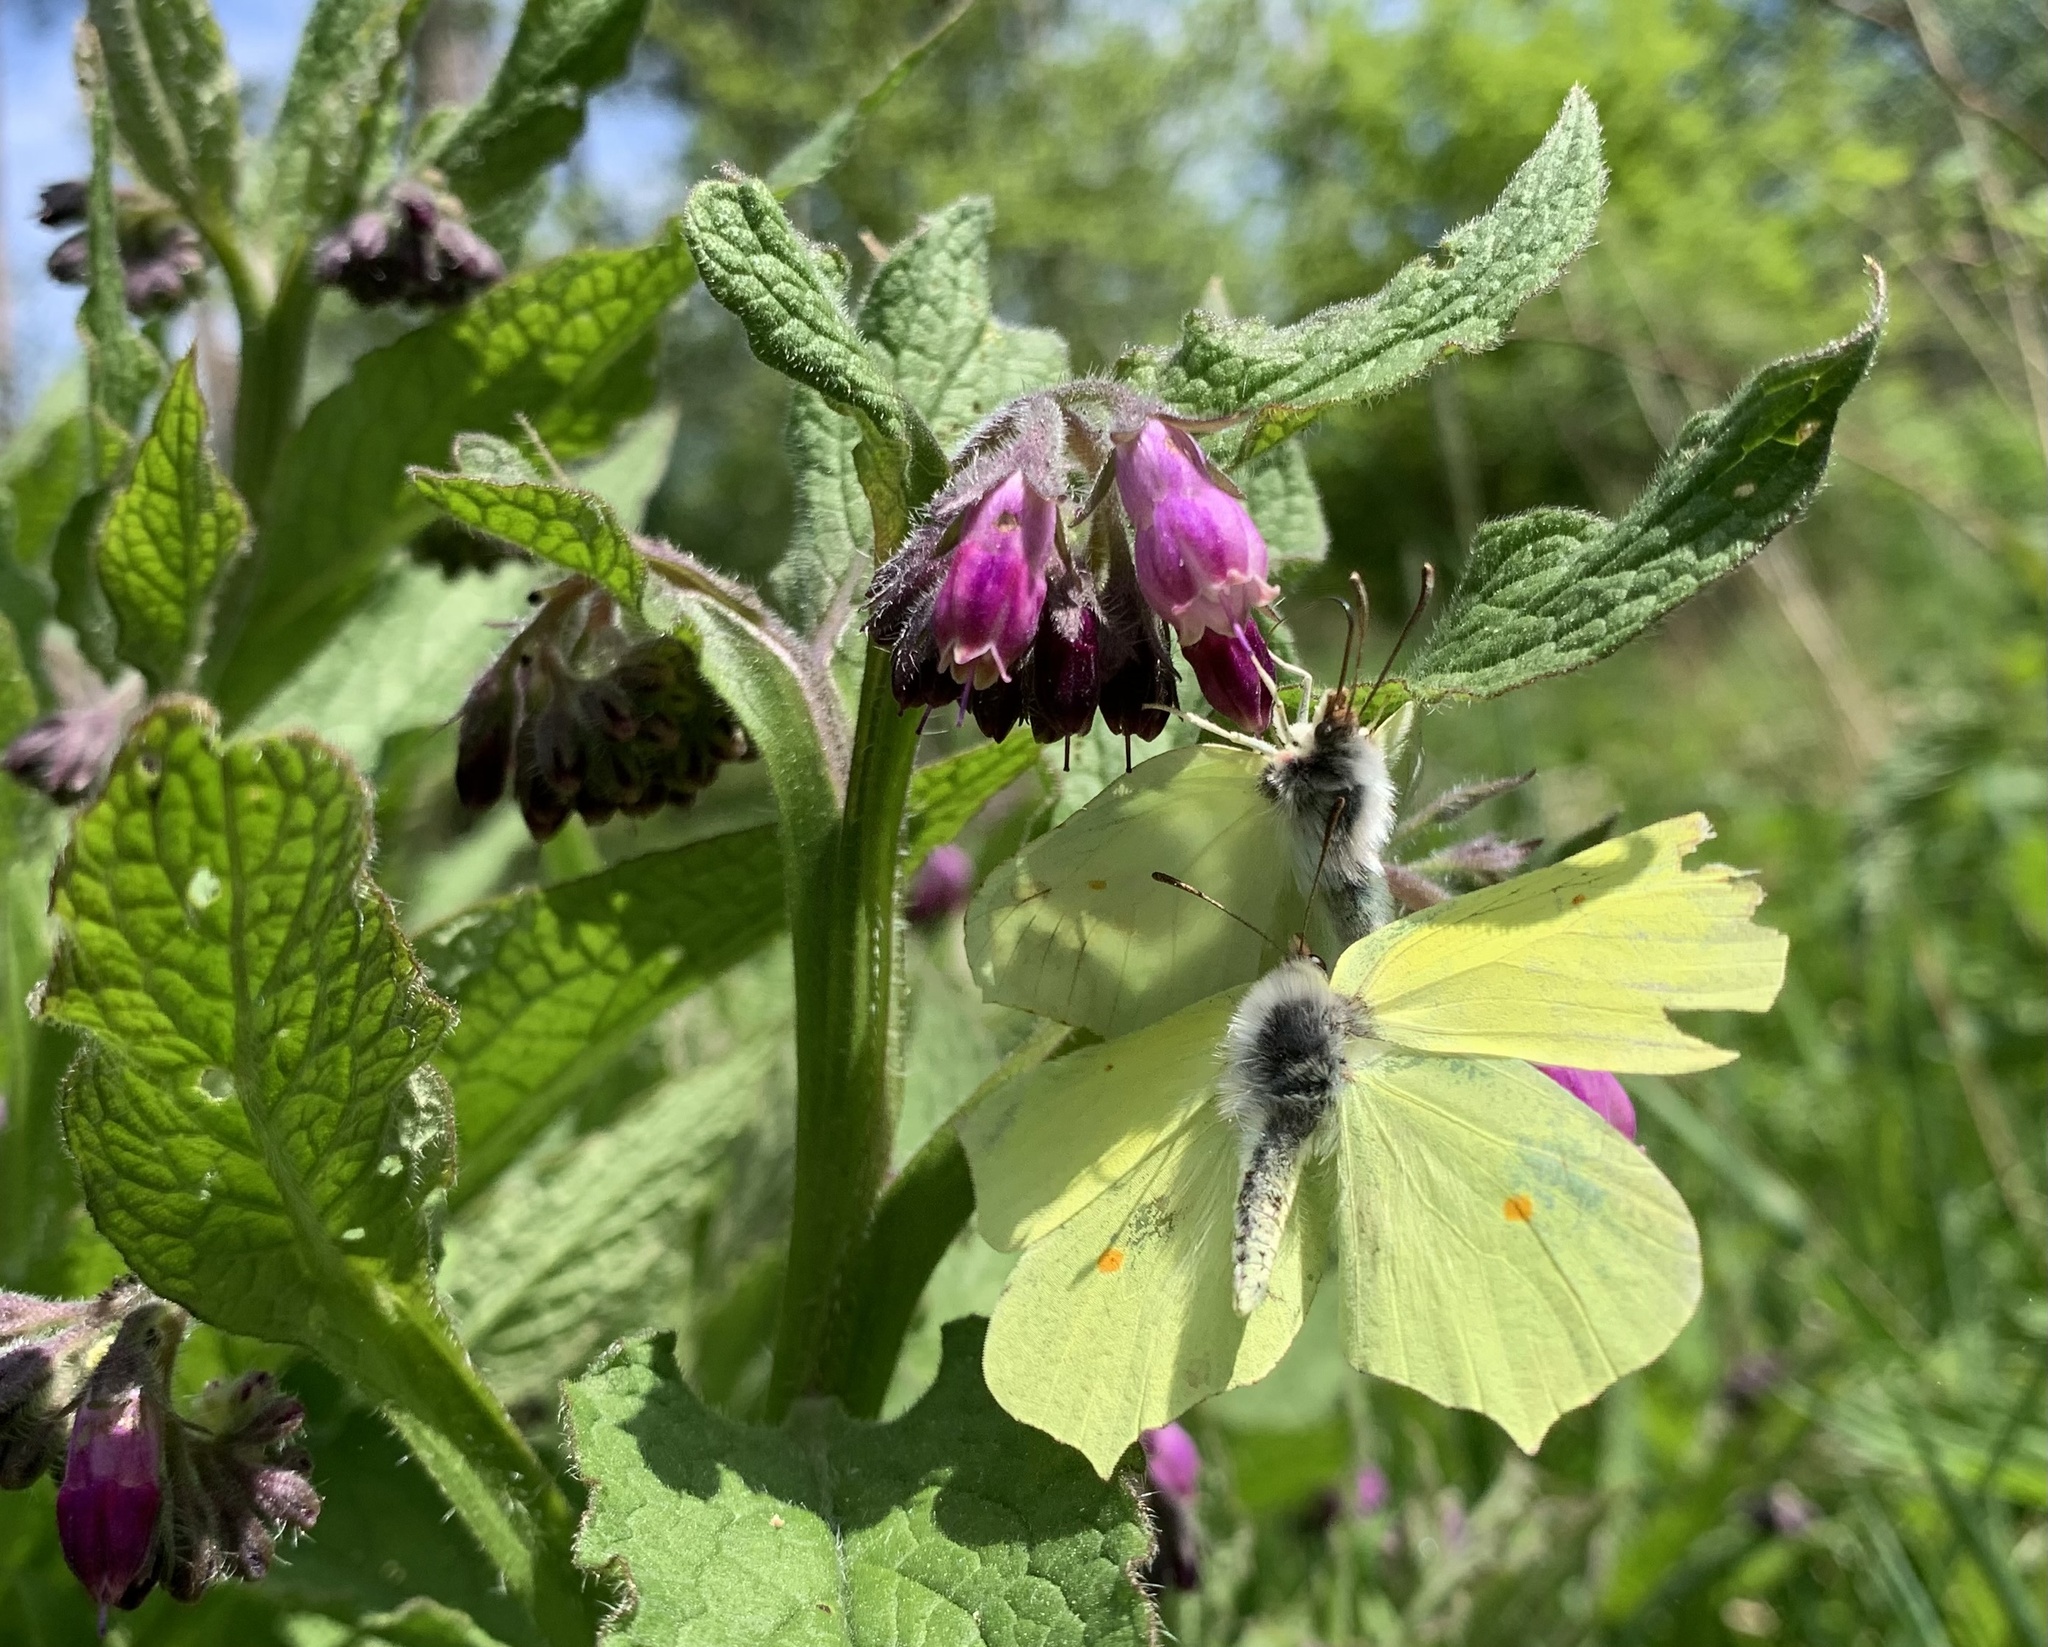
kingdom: Animalia
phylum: Arthropoda
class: Insecta
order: Lepidoptera
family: Pieridae
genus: Gonepteryx
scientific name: Gonepteryx rhamni
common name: Brimstone
